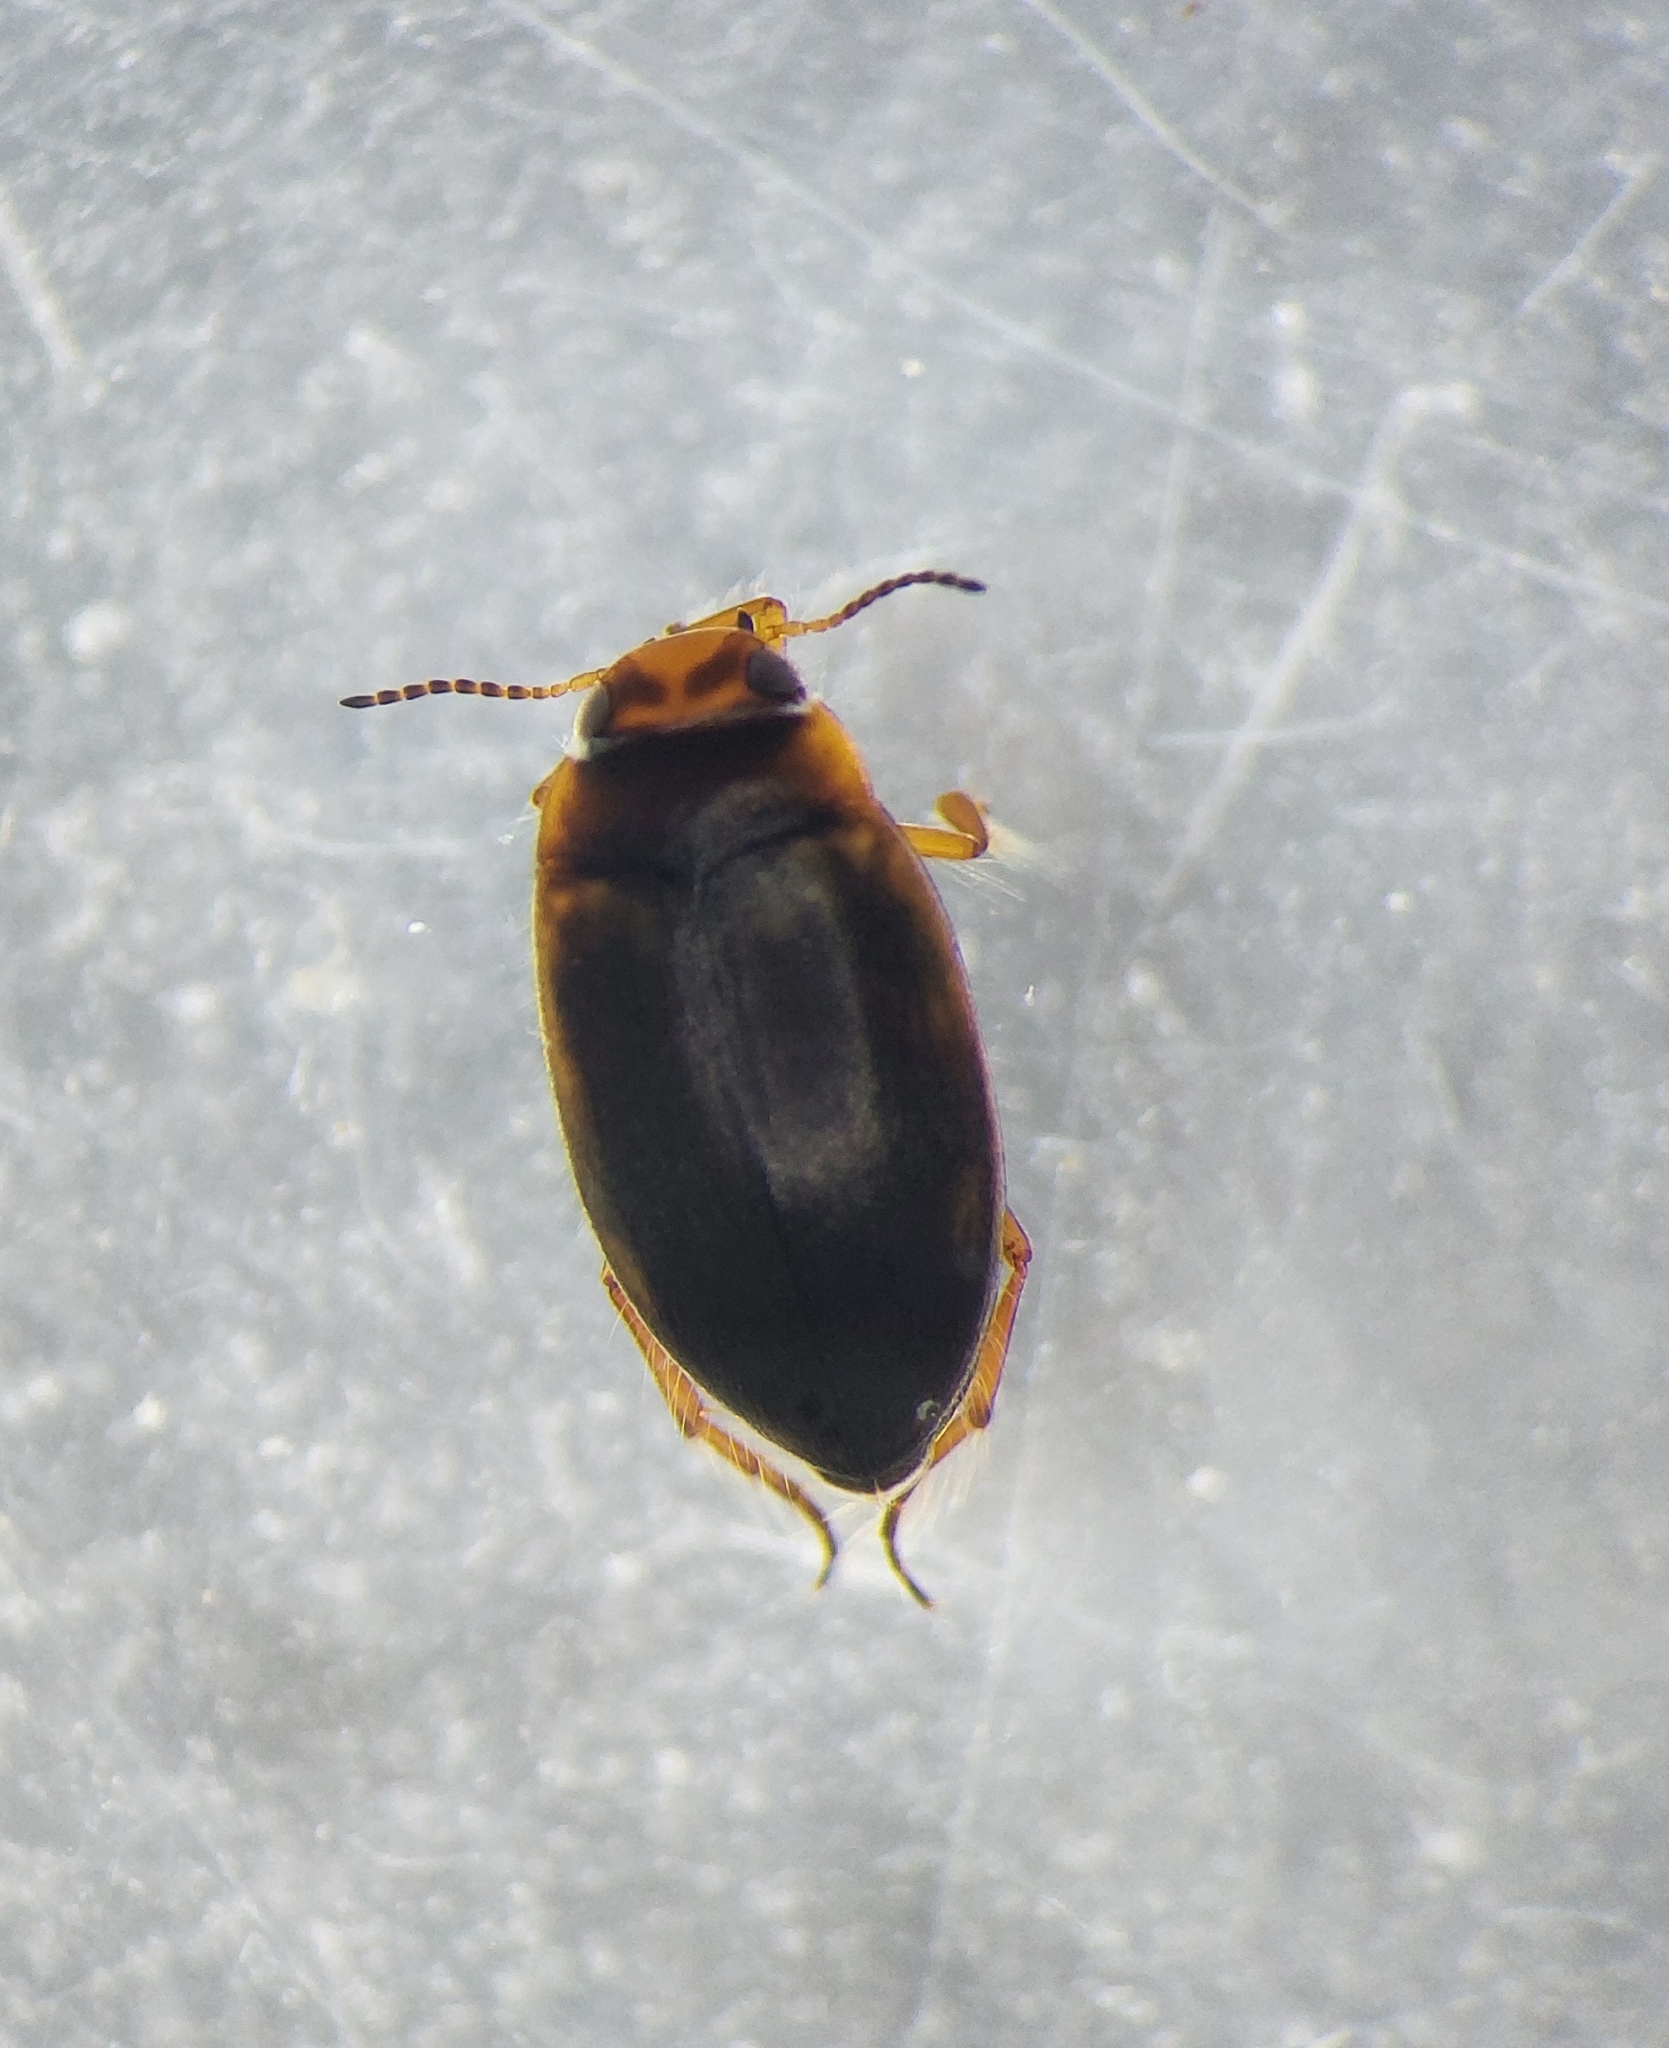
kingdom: Animalia
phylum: Arthropoda
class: Insecta
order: Coleoptera
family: Dytiscidae
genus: Hydroporus
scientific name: Hydroporus incognitus
